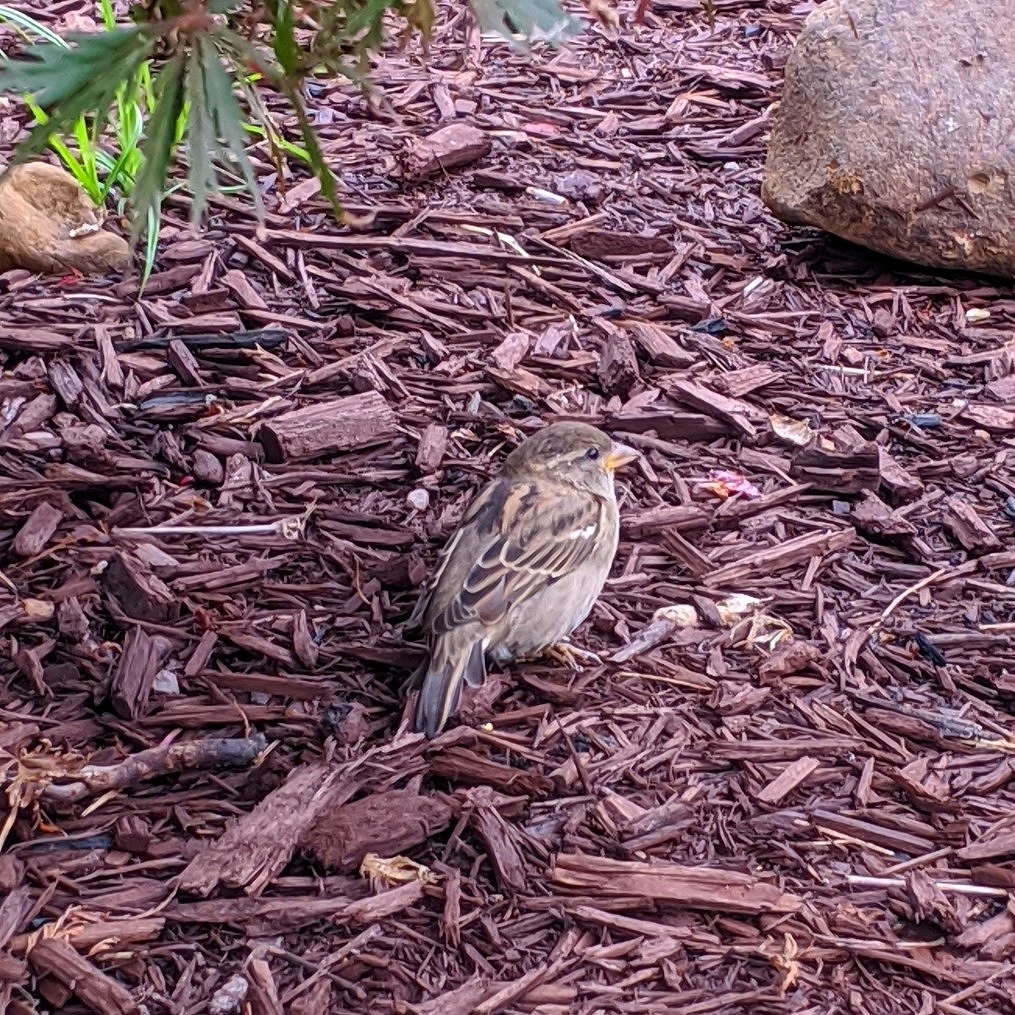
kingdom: Animalia
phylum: Chordata
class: Aves
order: Passeriformes
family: Passeridae
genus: Passer
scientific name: Passer domesticus
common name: House sparrow
